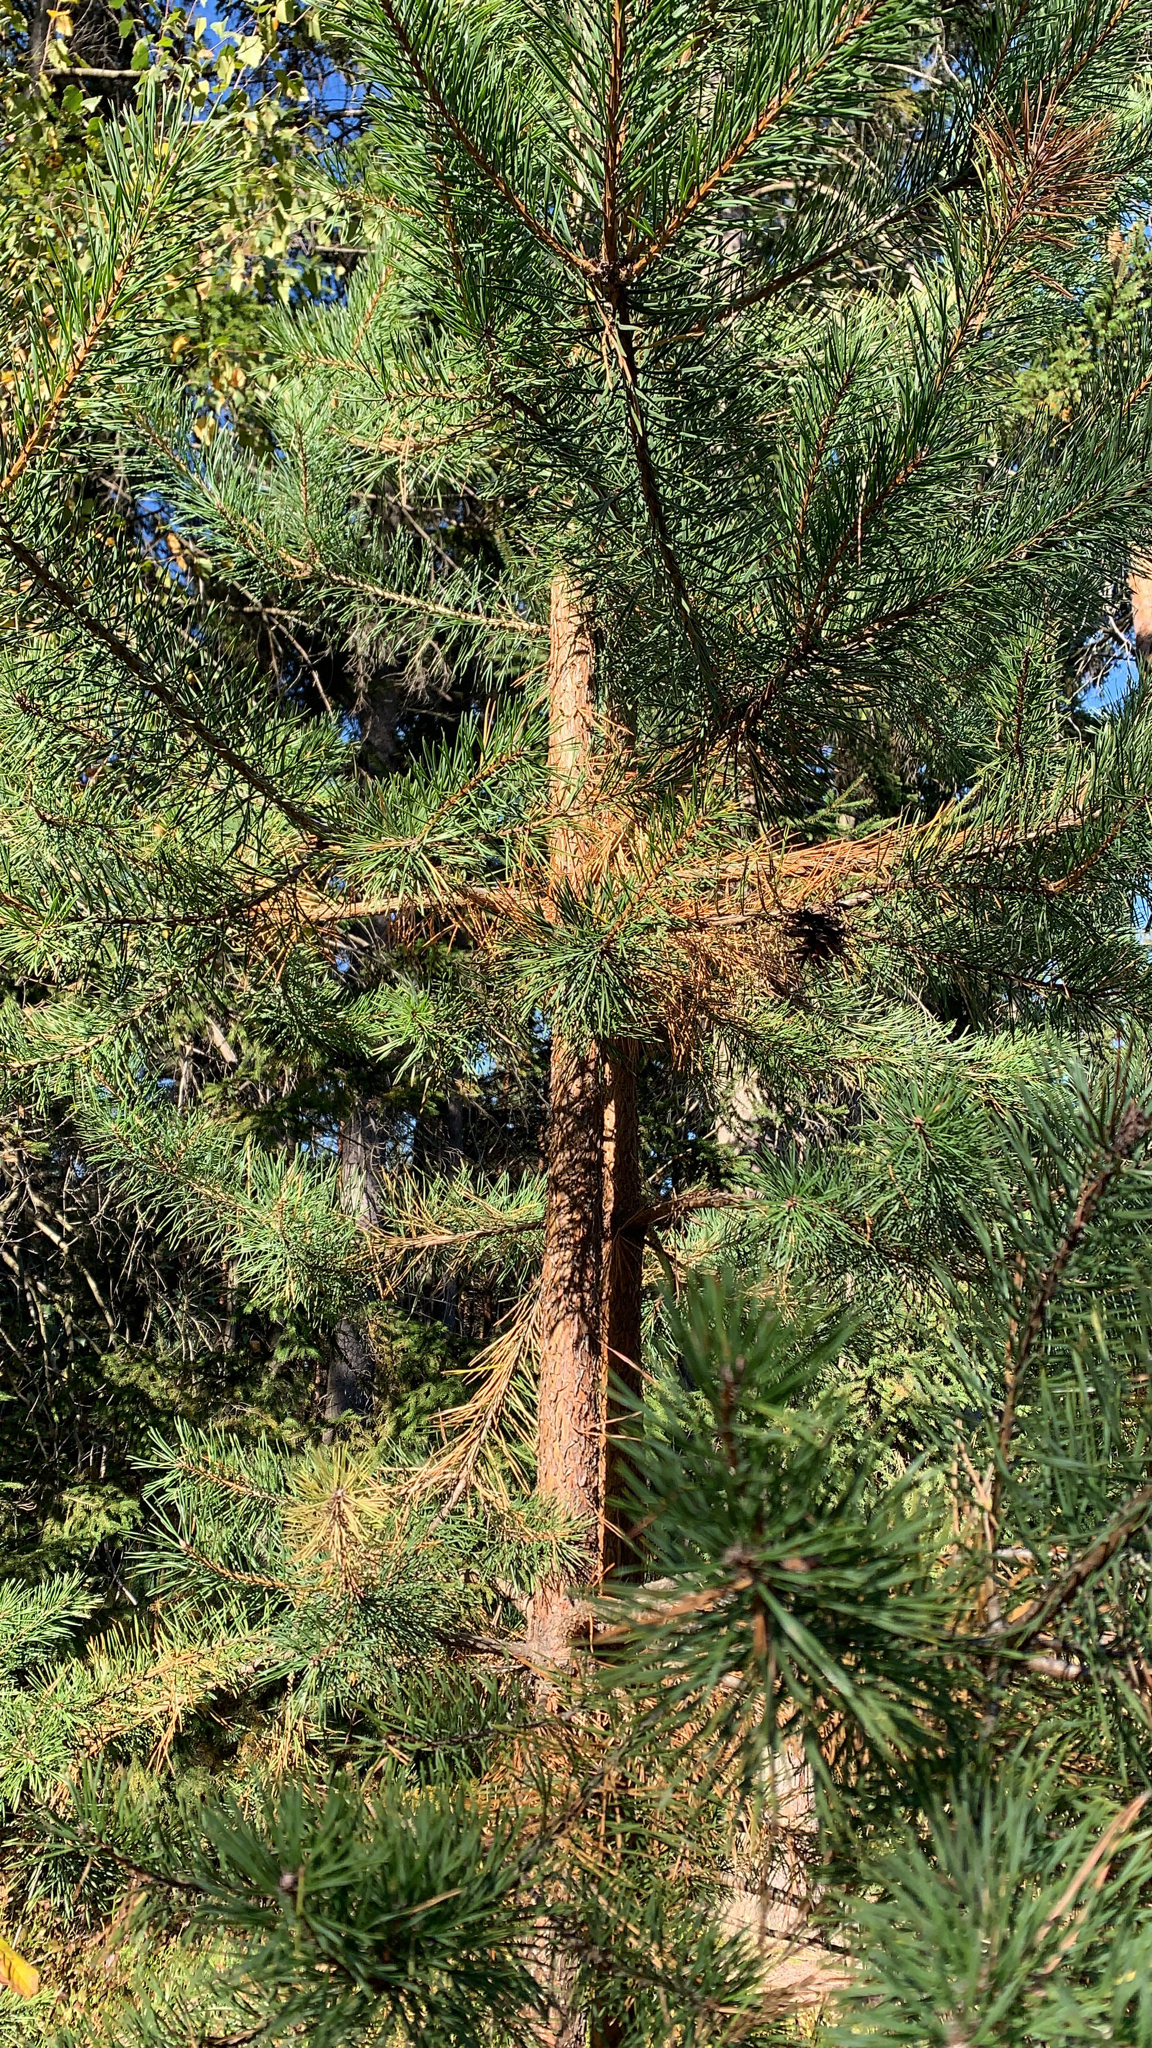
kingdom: Plantae
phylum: Tracheophyta
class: Pinopsida
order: Pinales
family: Pinaceae
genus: Pinus
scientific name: Pinus sylvestris
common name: Scots pine
